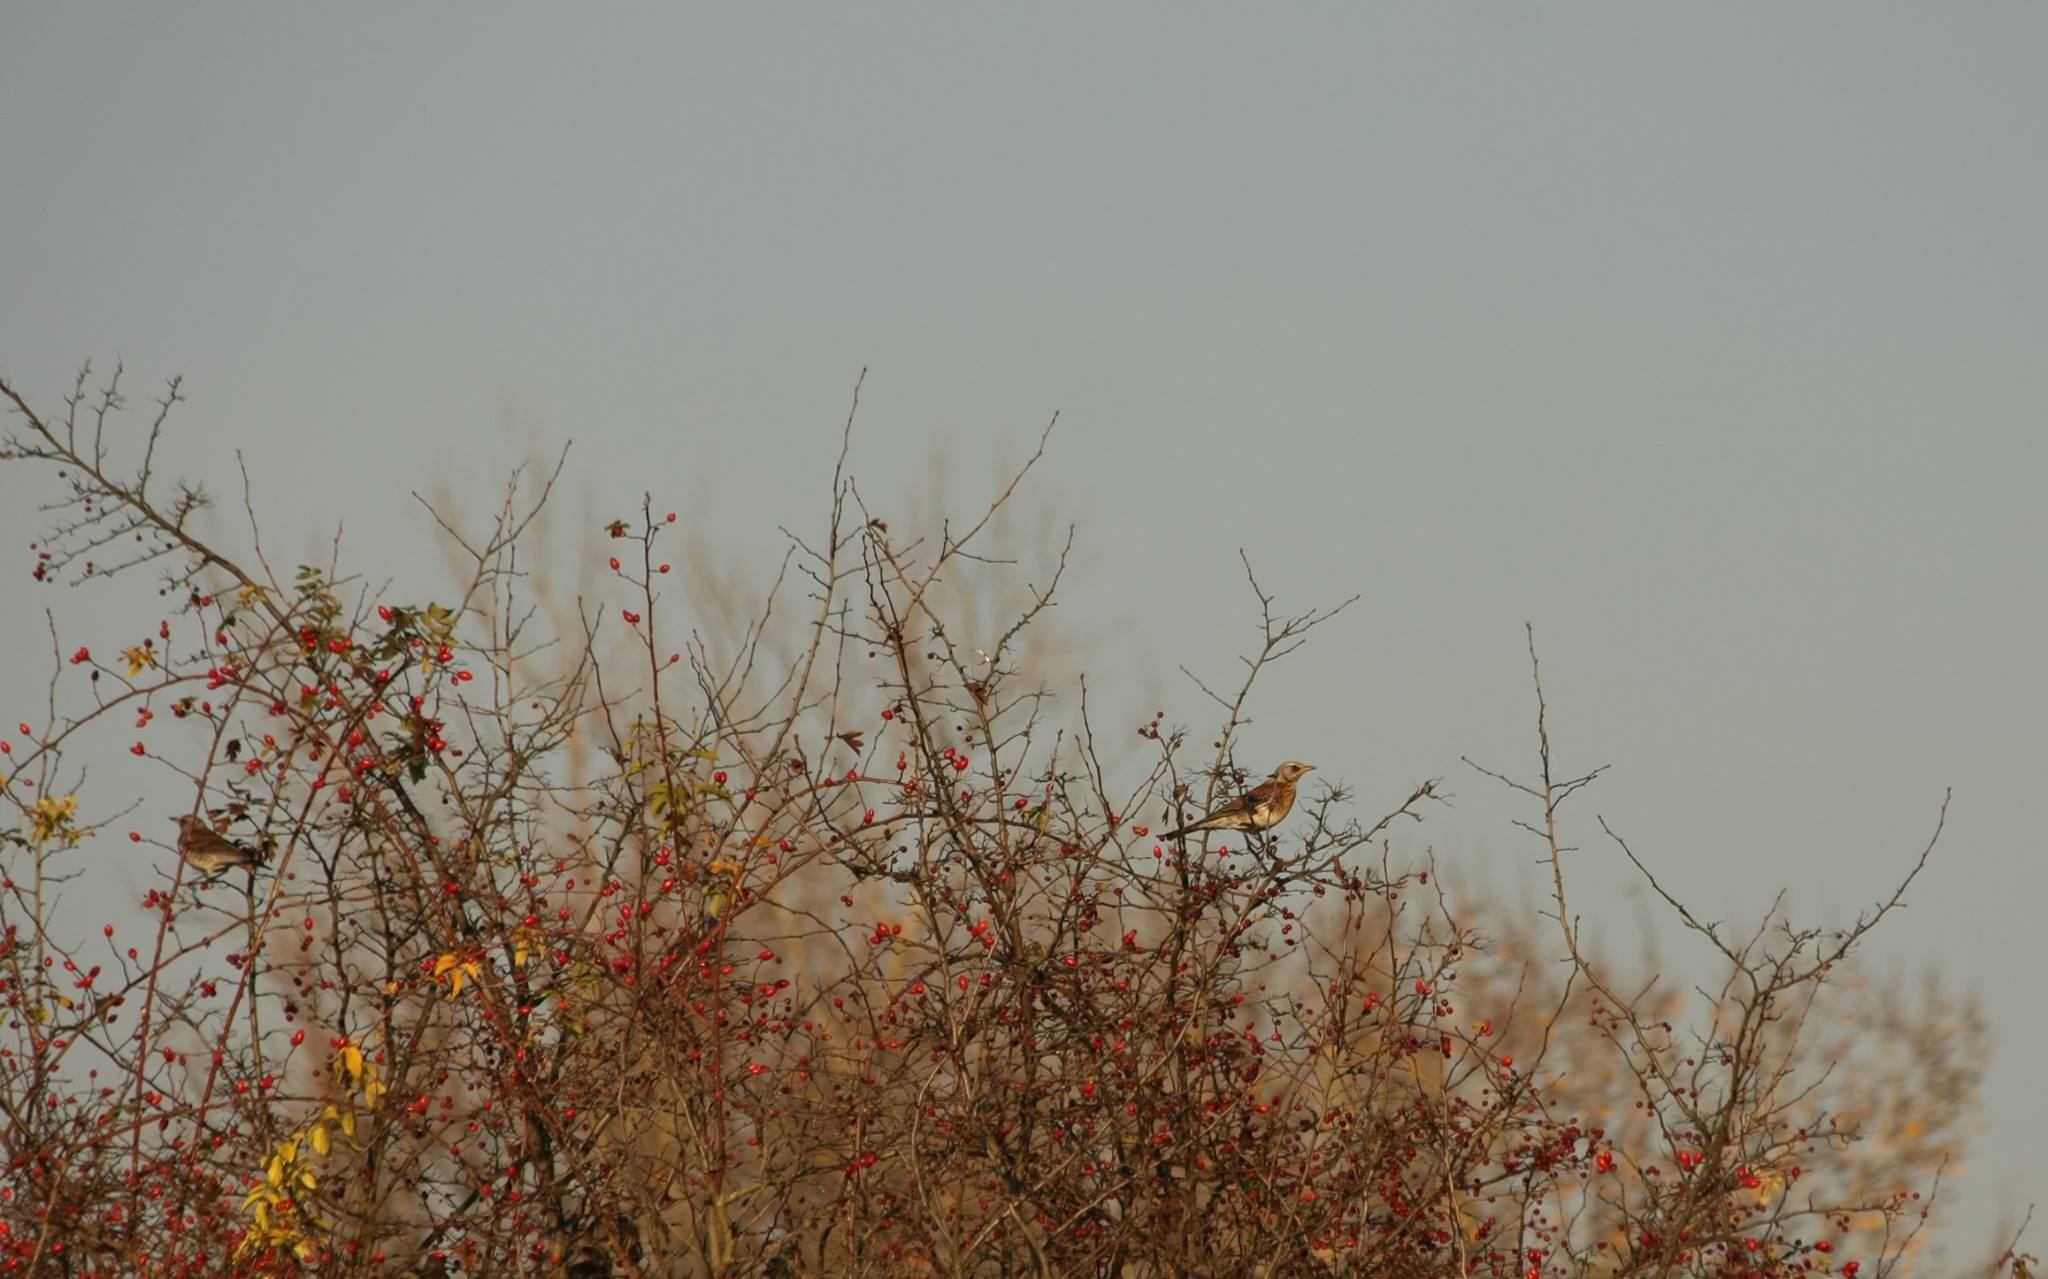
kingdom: Animalia
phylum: Chordata
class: Aves
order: Passeriformes
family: Turdidae
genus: Turdus
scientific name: Turdus pilaris
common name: Fieldfare
